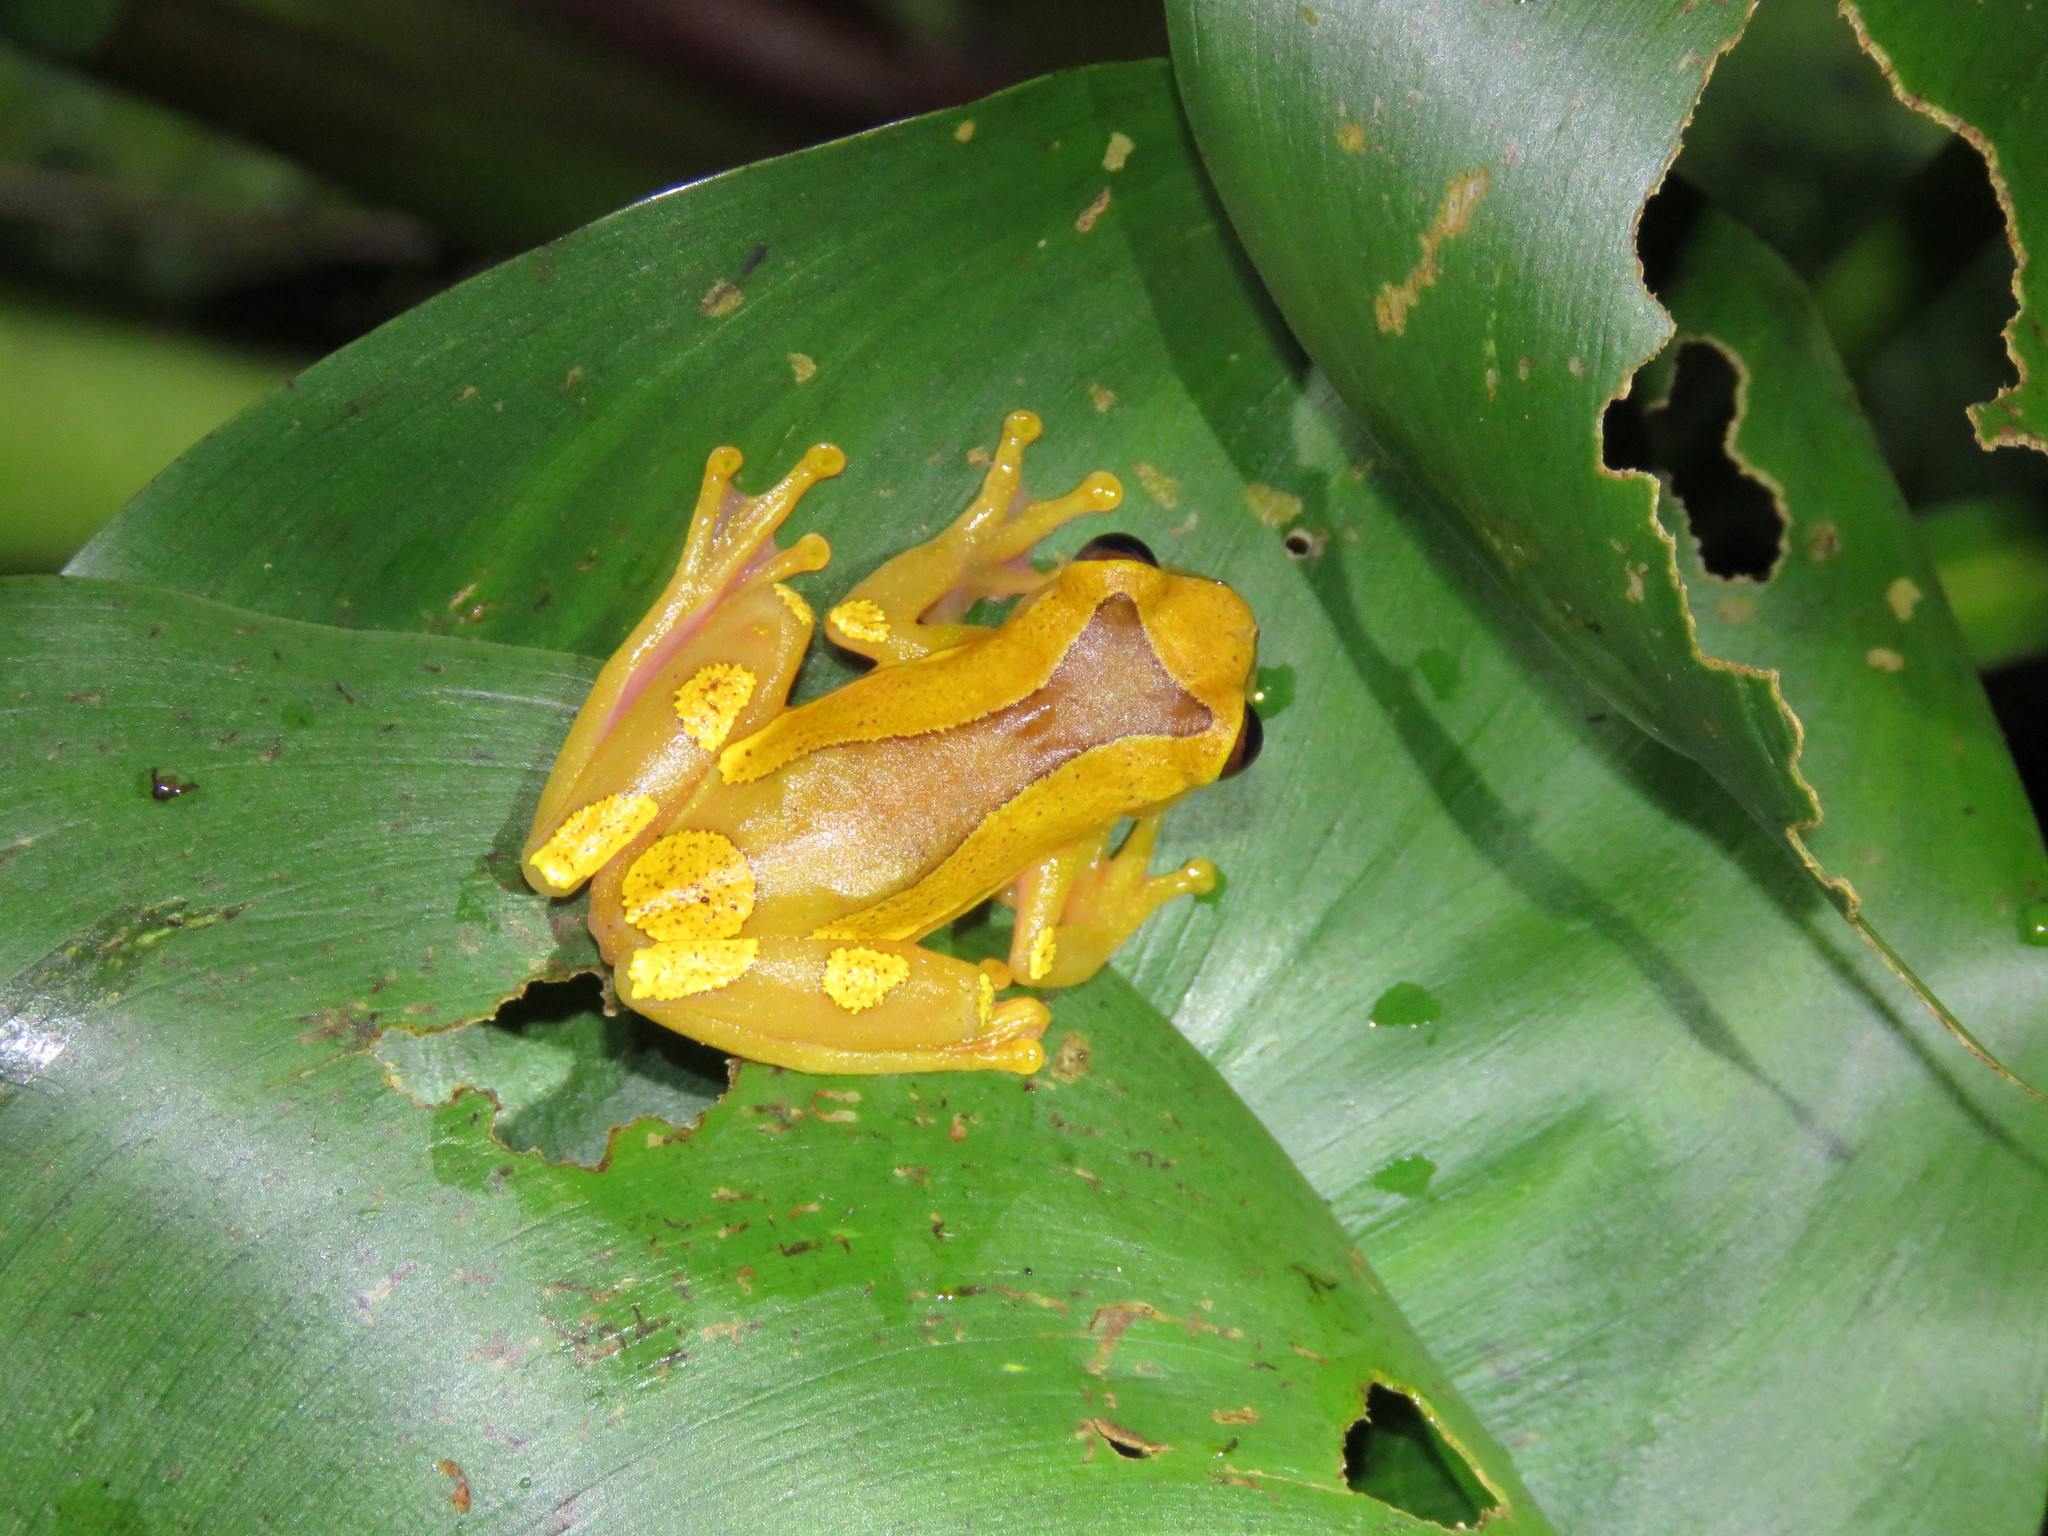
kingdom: Animalia
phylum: Chordata
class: Amphibia
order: Anura
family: Hylidae
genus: Dendropsophus
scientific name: Dendropsophus arndti
